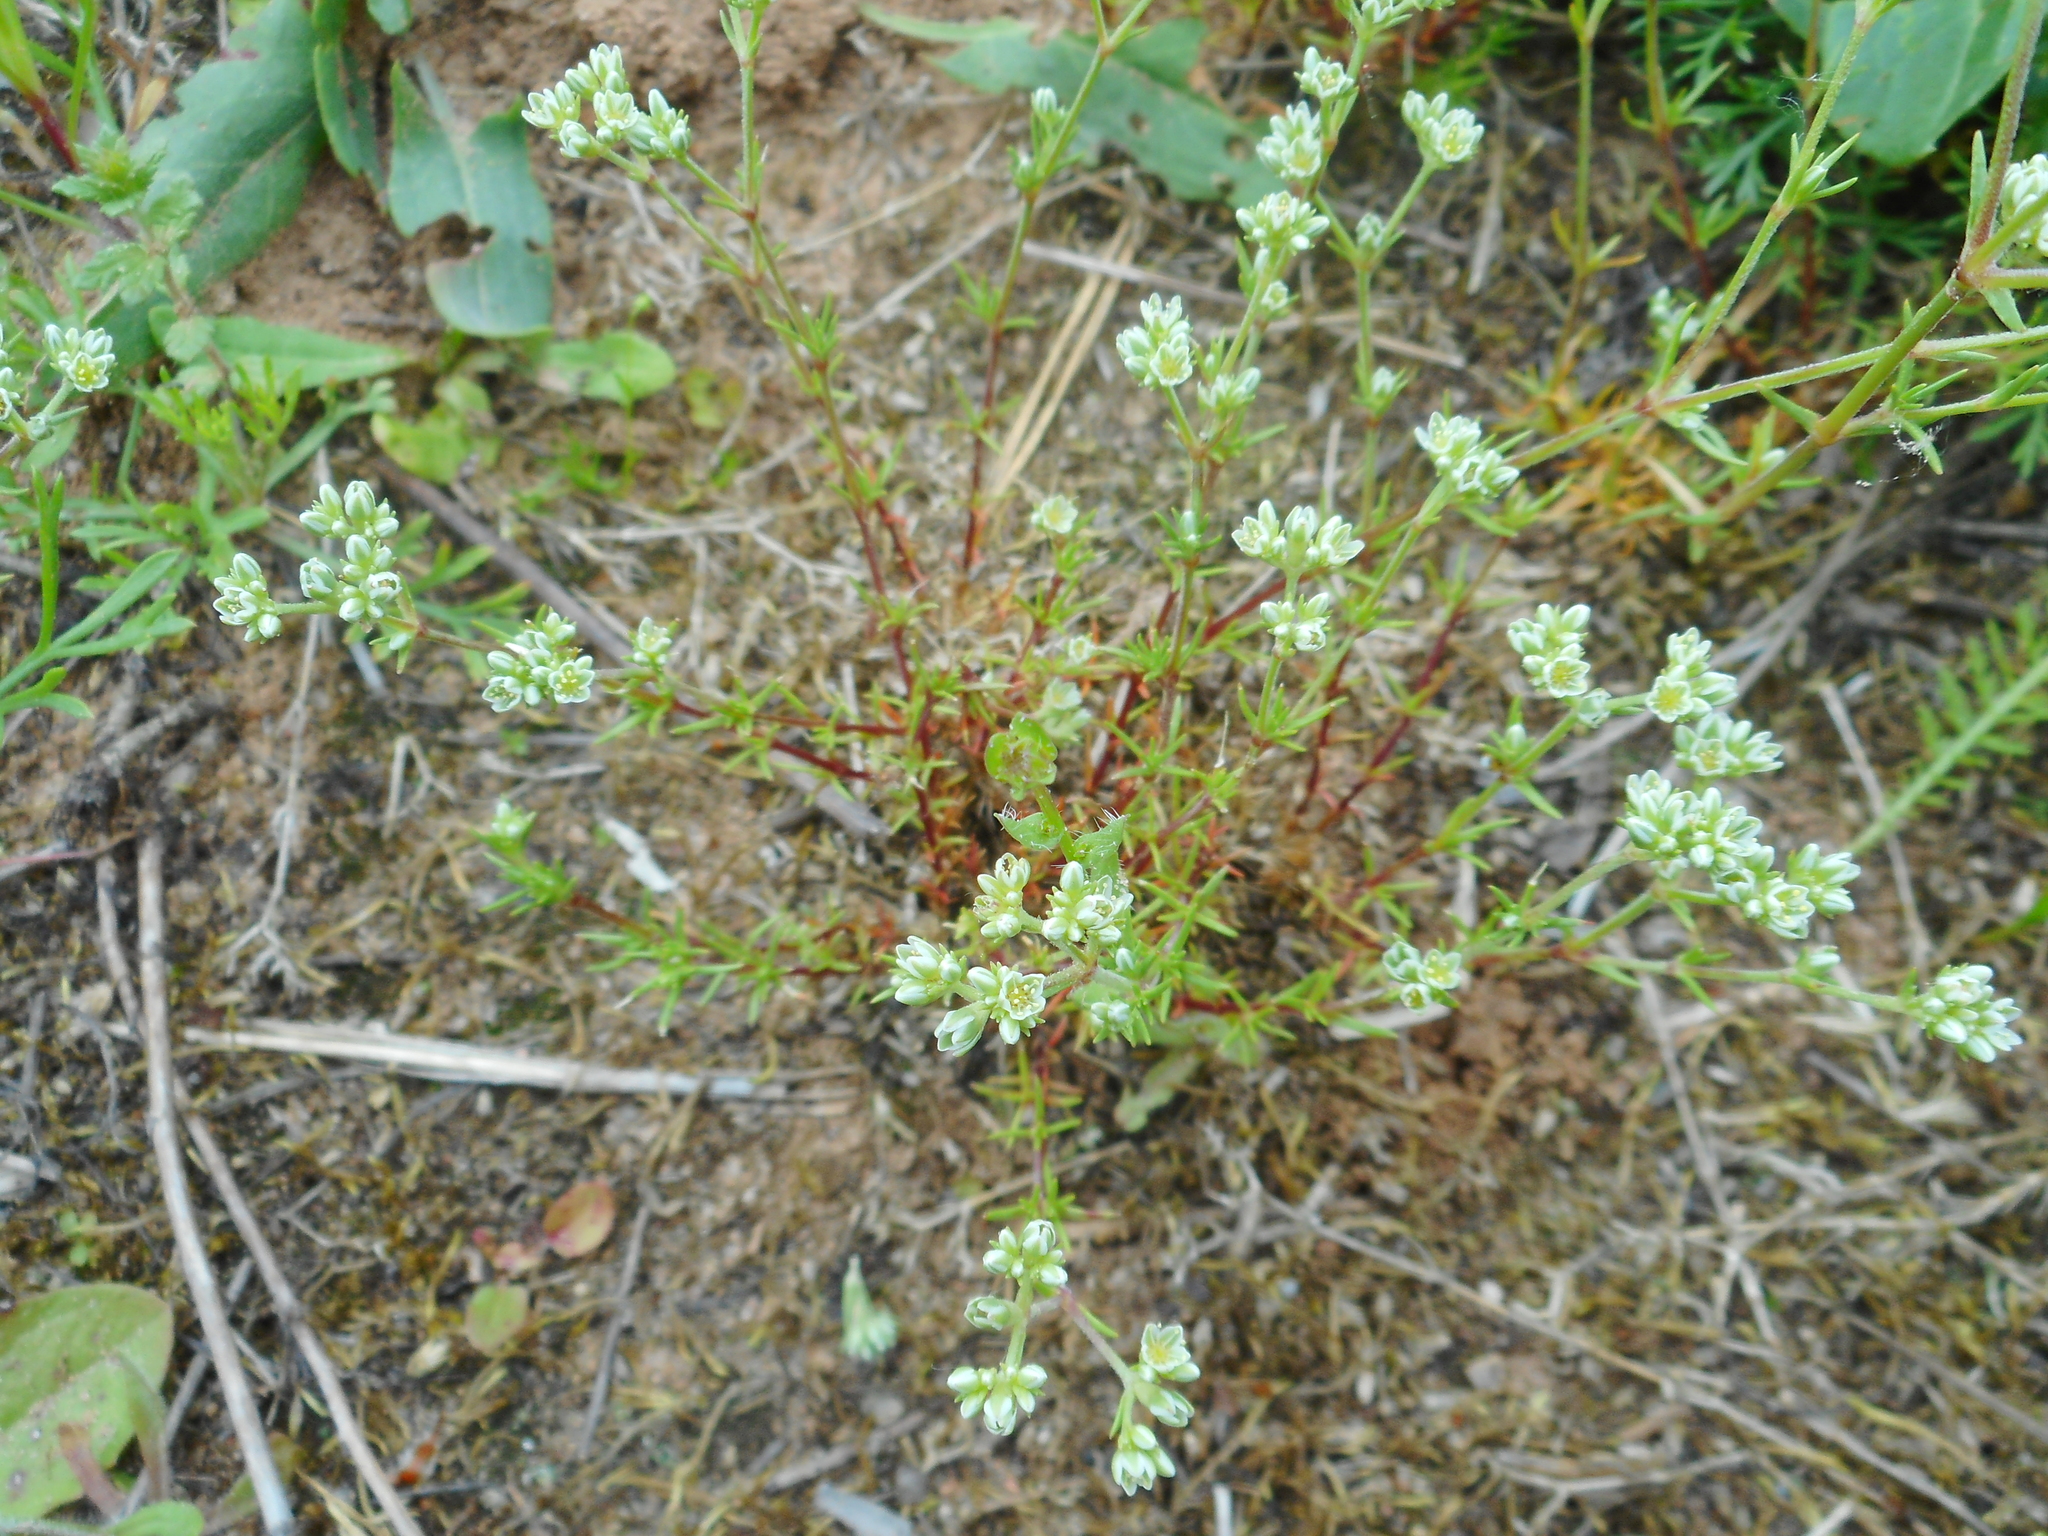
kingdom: Plantae
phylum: Tracheophyta
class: Magnoliopsida
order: Caryophyllales
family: Caryophyllaceae
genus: Scleranthus
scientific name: Scleranthus perennis
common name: Perennial knawel
